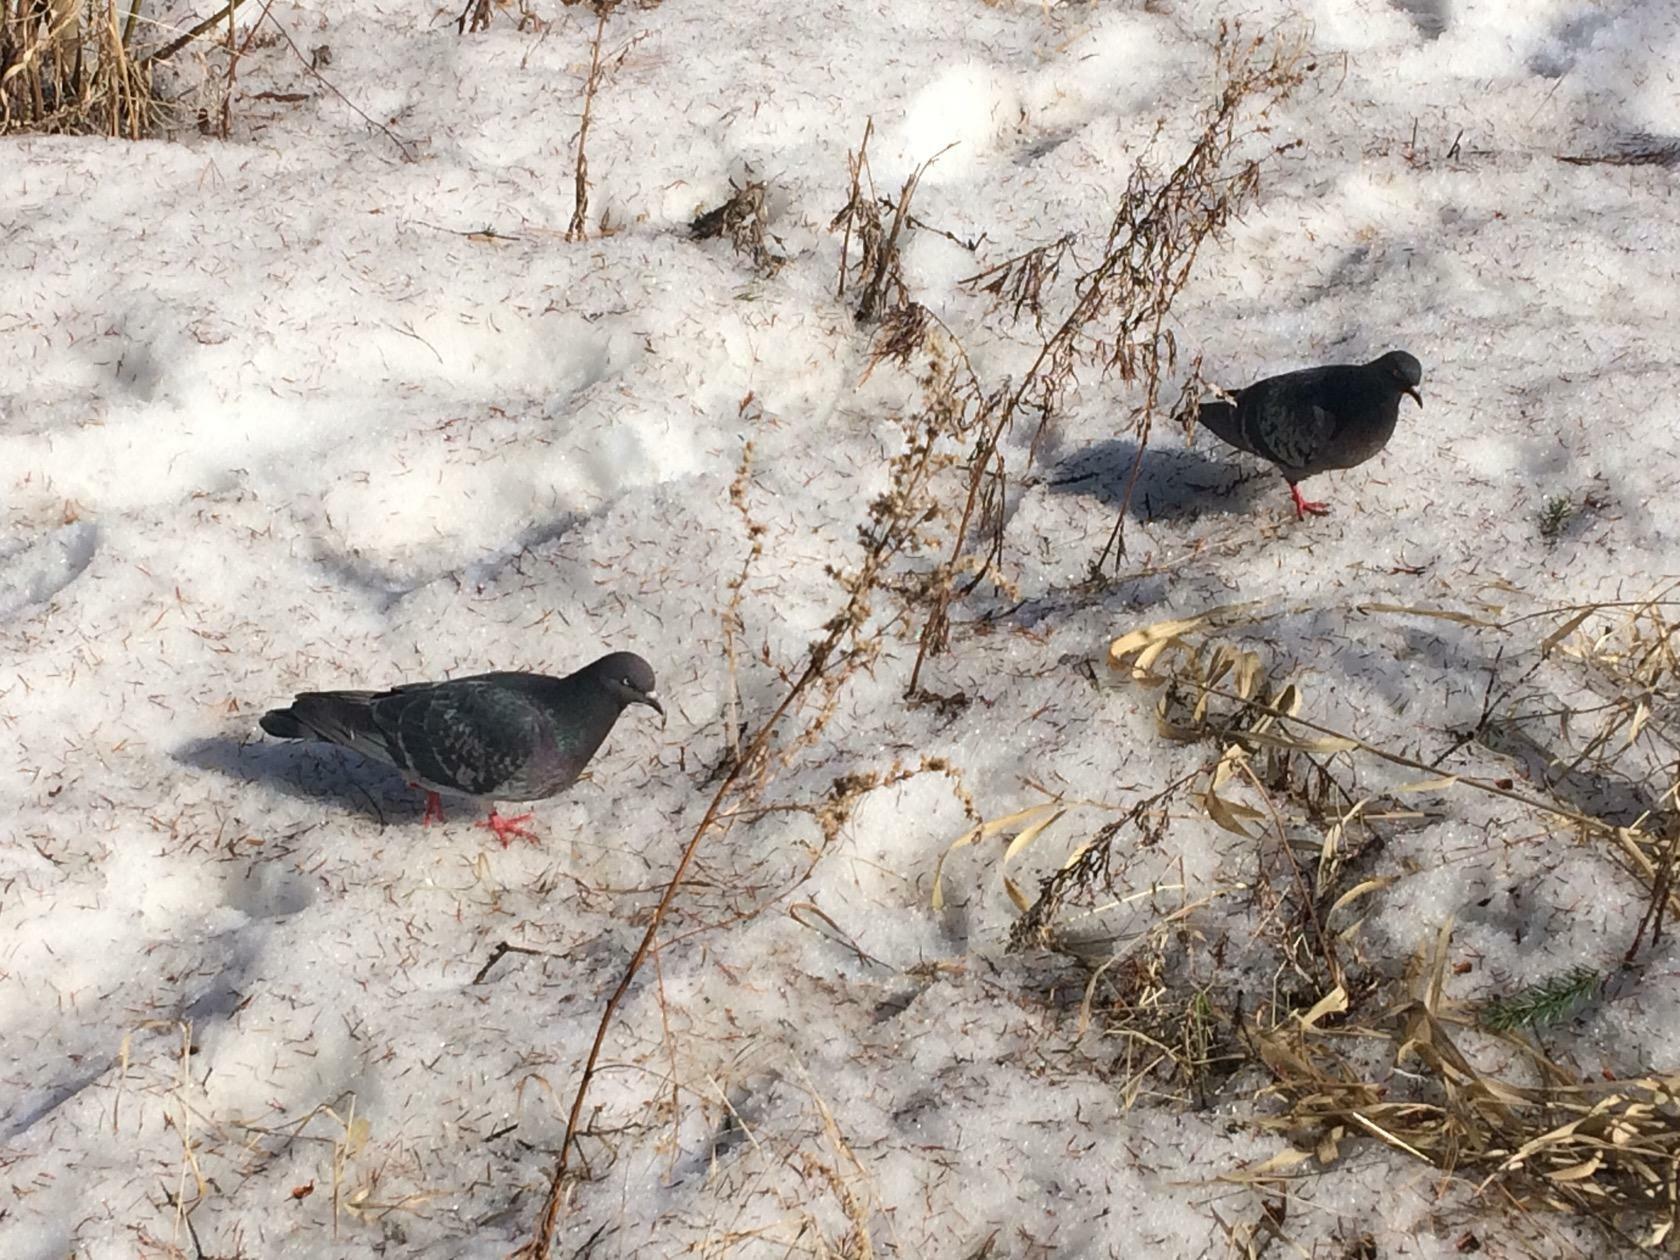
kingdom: Animalia
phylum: Chordata
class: Aves
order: Columbiformes
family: Columbidae
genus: Columba
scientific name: Columba livia
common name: Rock pigeon
